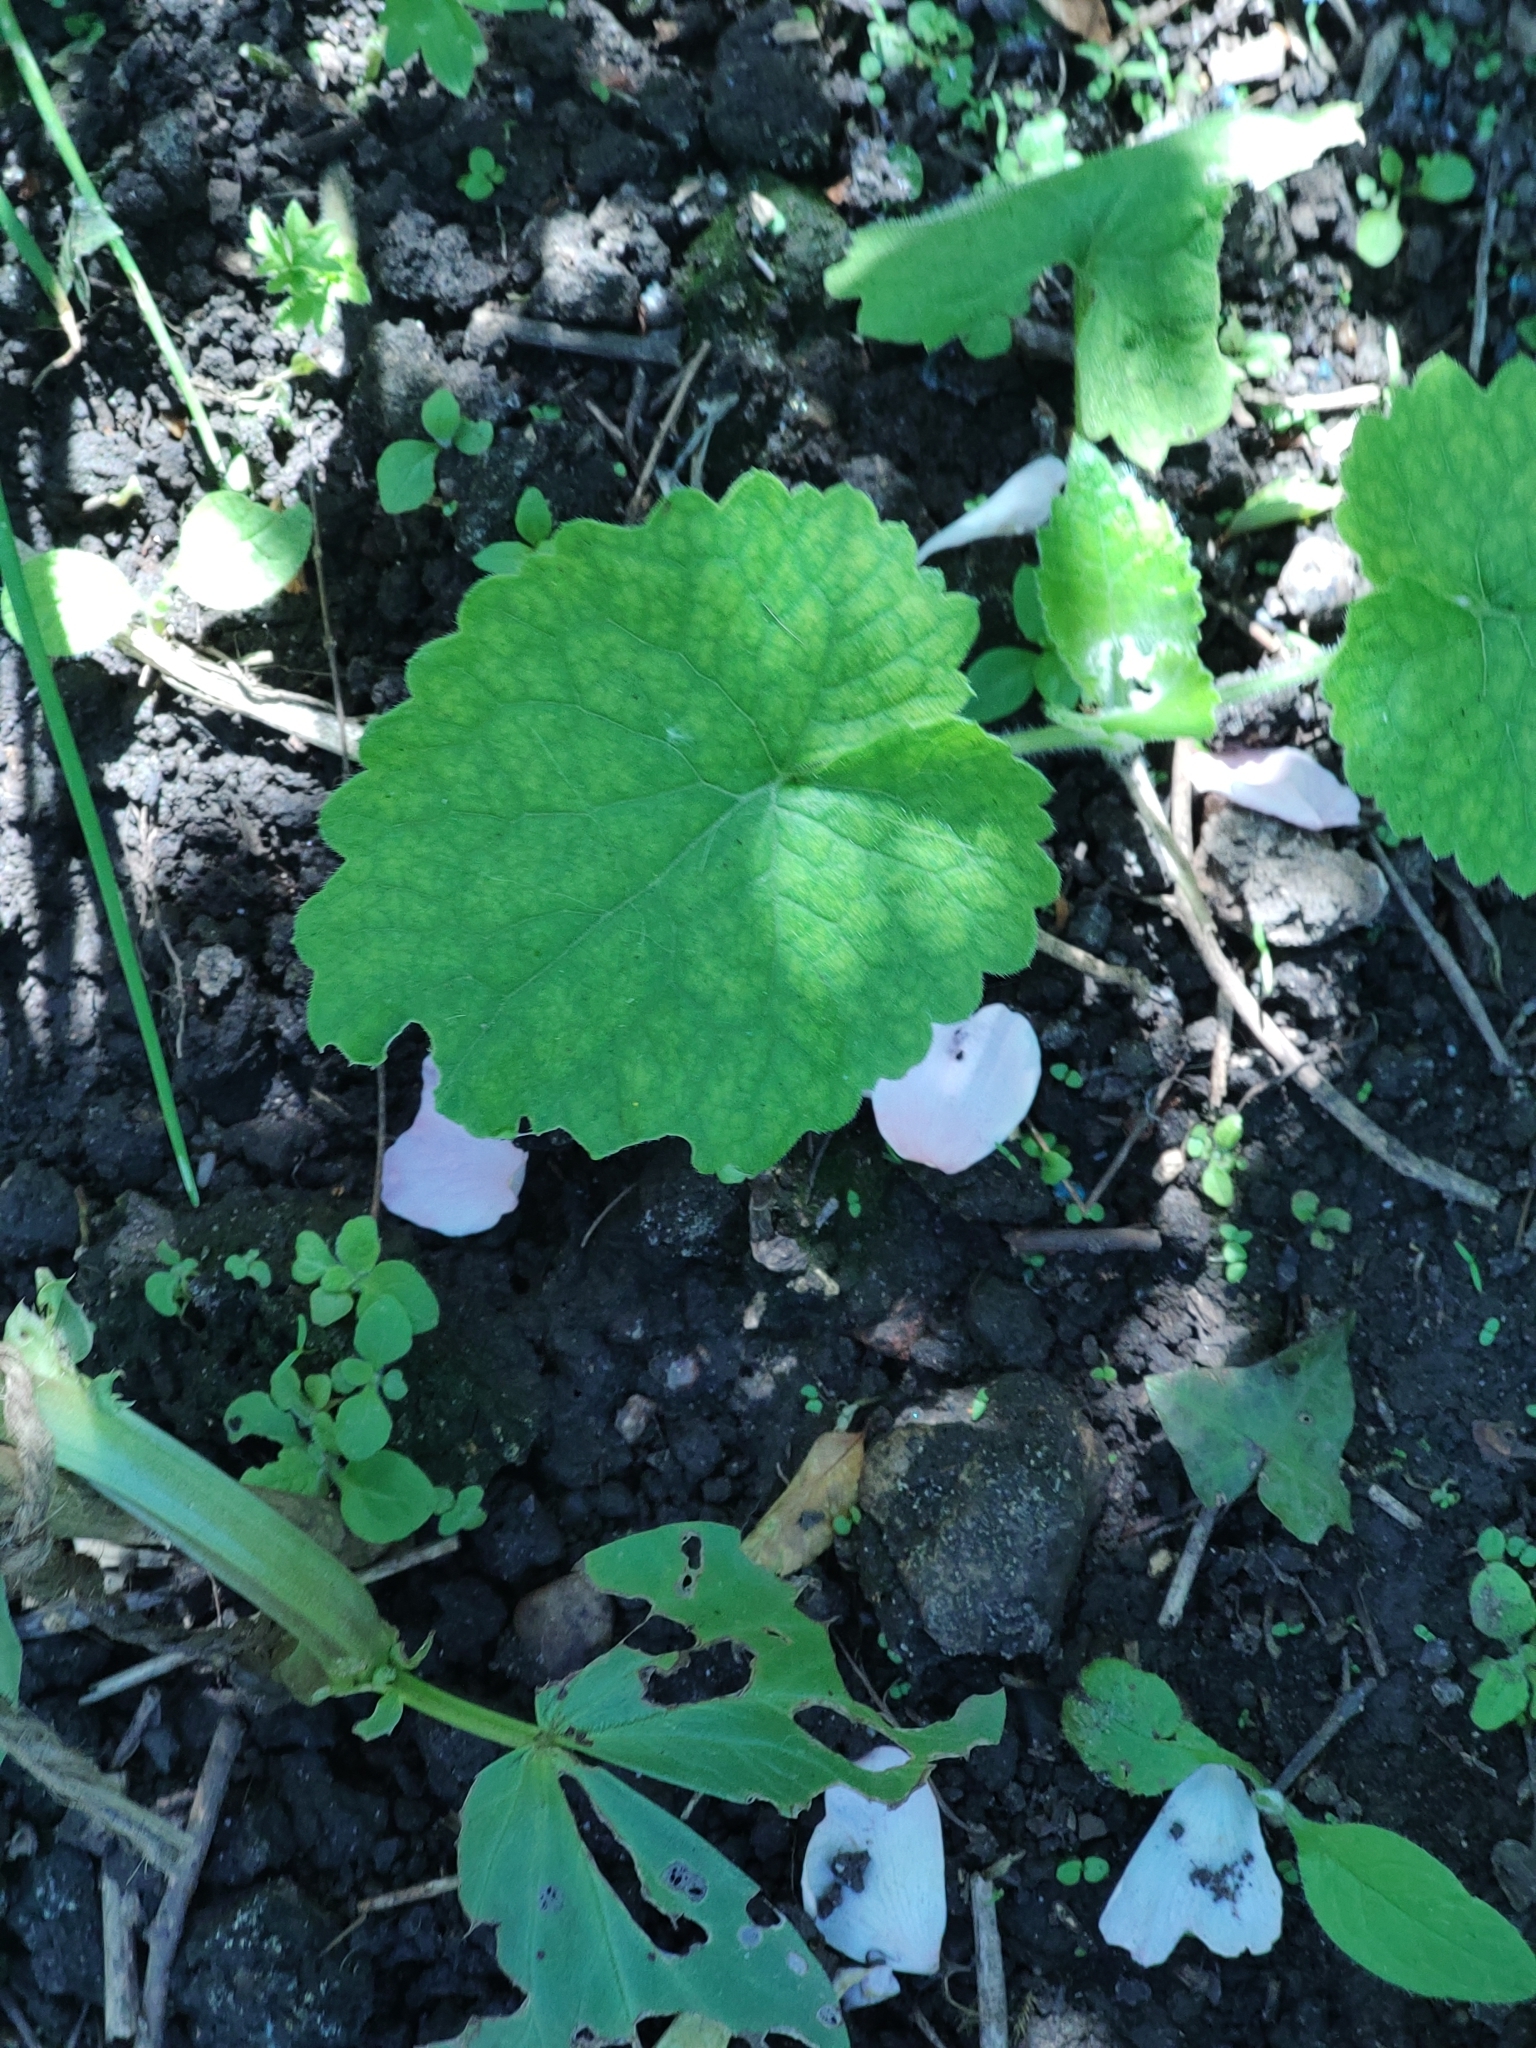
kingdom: Plantae
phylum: Tracheophyta
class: Magnoliopsida
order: Brassicales
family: Brassicaceae
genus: Alliaria
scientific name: Alliaria petiolata
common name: Garlic mustard
